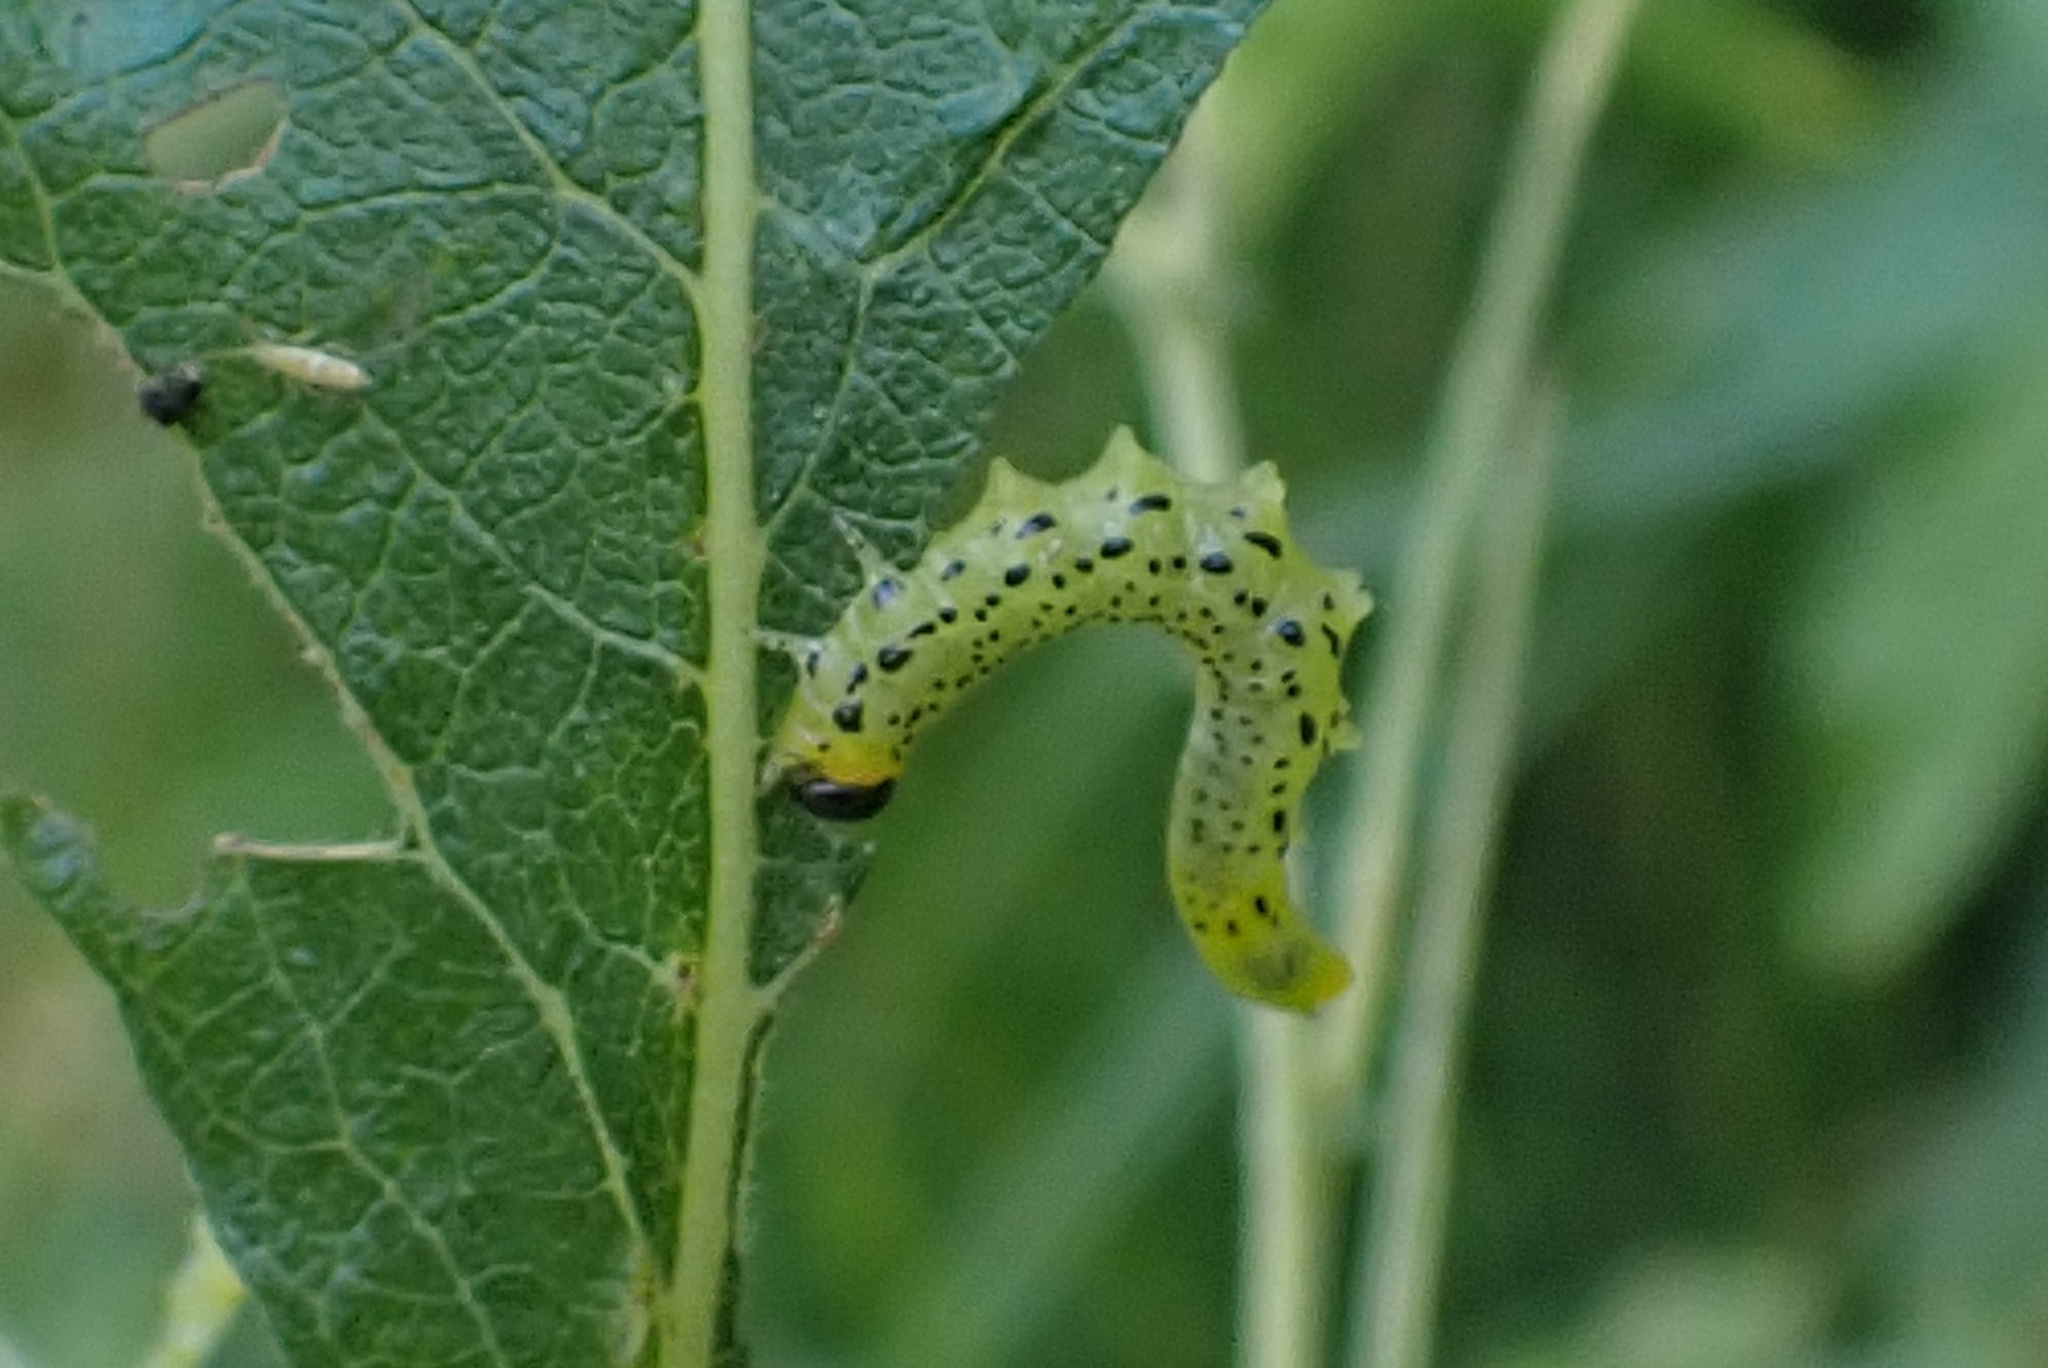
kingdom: Animalia
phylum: Arthropoda
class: Insecta
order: Hymenoptera
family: Tenthredinidae
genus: Nematus
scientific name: Nematus papillosus
